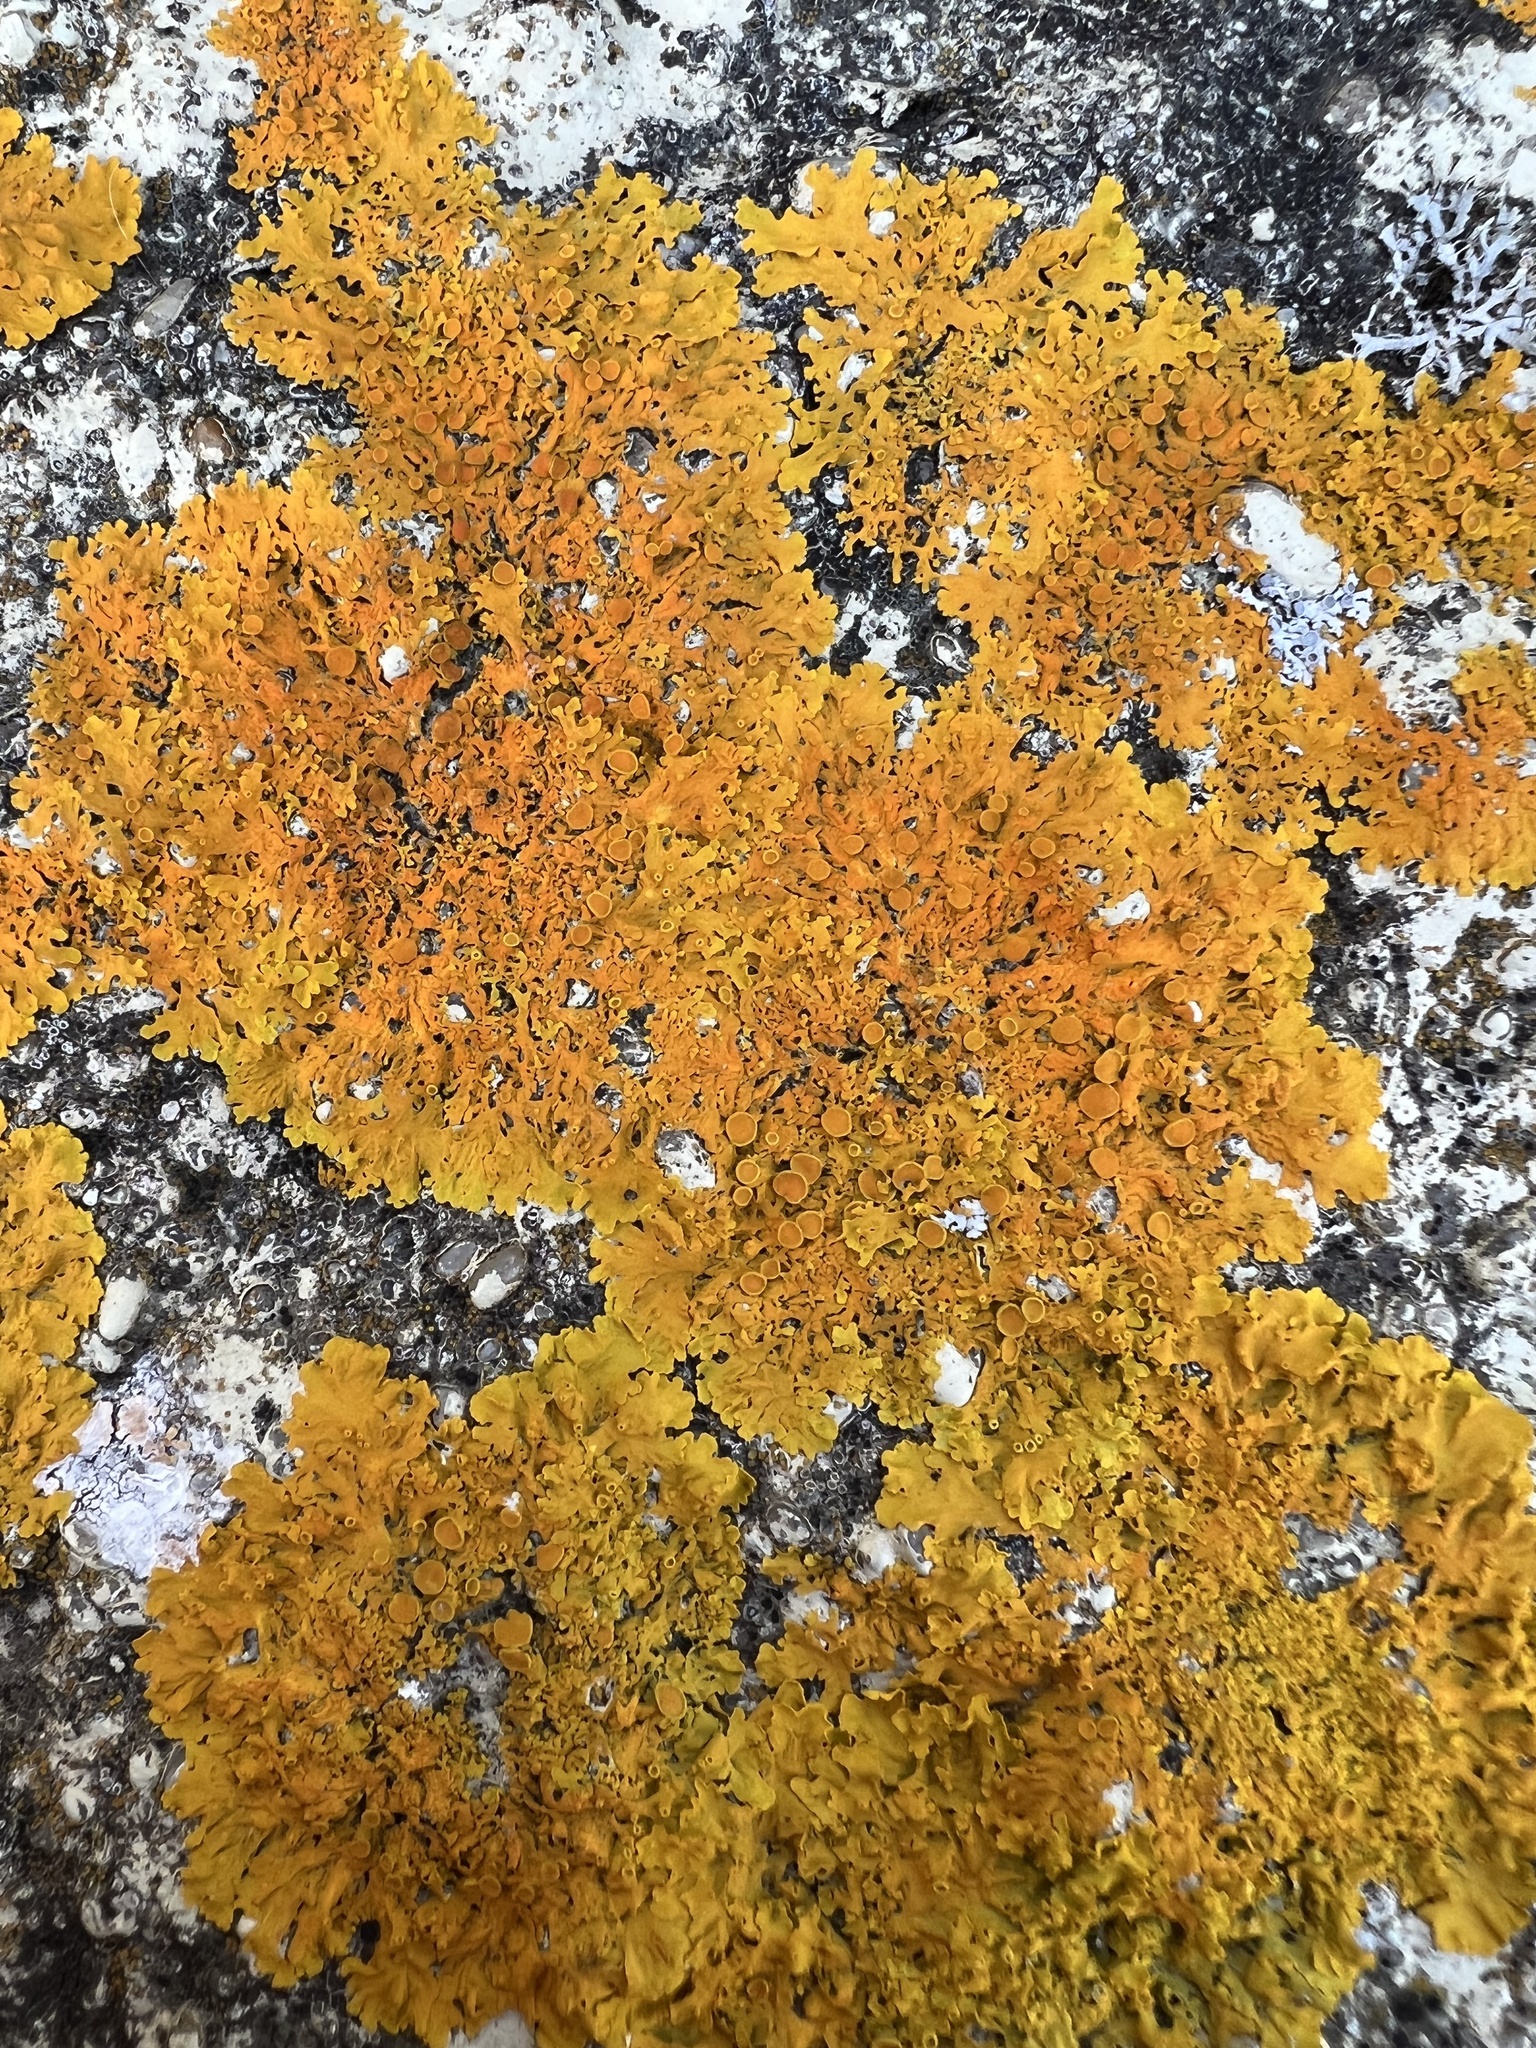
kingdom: Fungi
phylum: Ascomycota
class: Lecanoromycetes
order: Teloschistales
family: Teloschistaceae
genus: Xanthoria
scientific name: Xanthoria parietina
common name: Common orange lichen
